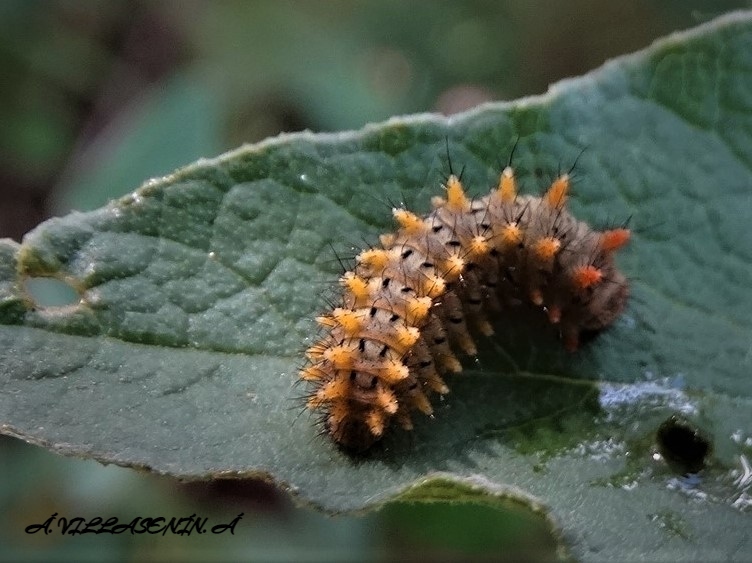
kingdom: Animalia
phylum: Arthropoda
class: Insecta
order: Lepidoptera
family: Papilionidae
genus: Zerynthia
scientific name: Zerynthia rumina
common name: Spanish festoon
